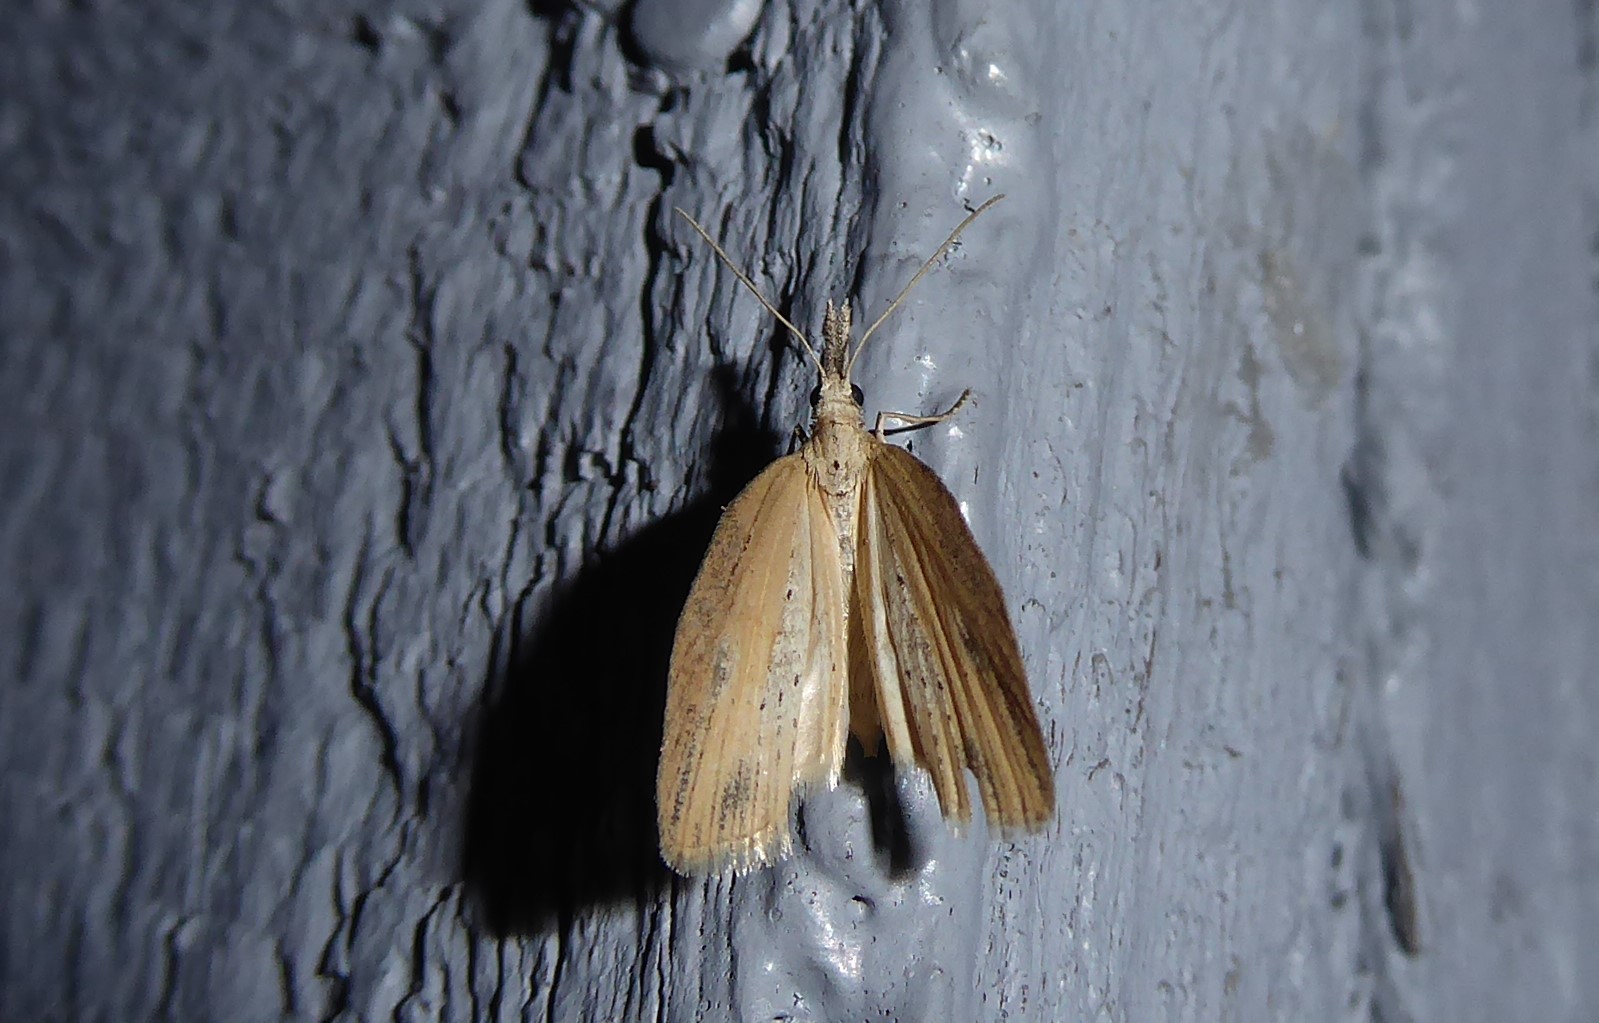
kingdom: Animalia
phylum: Arthropoda
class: Insecta
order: Lepidoptera
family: Geometridae
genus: Microdes
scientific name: Microdes epicryptis
